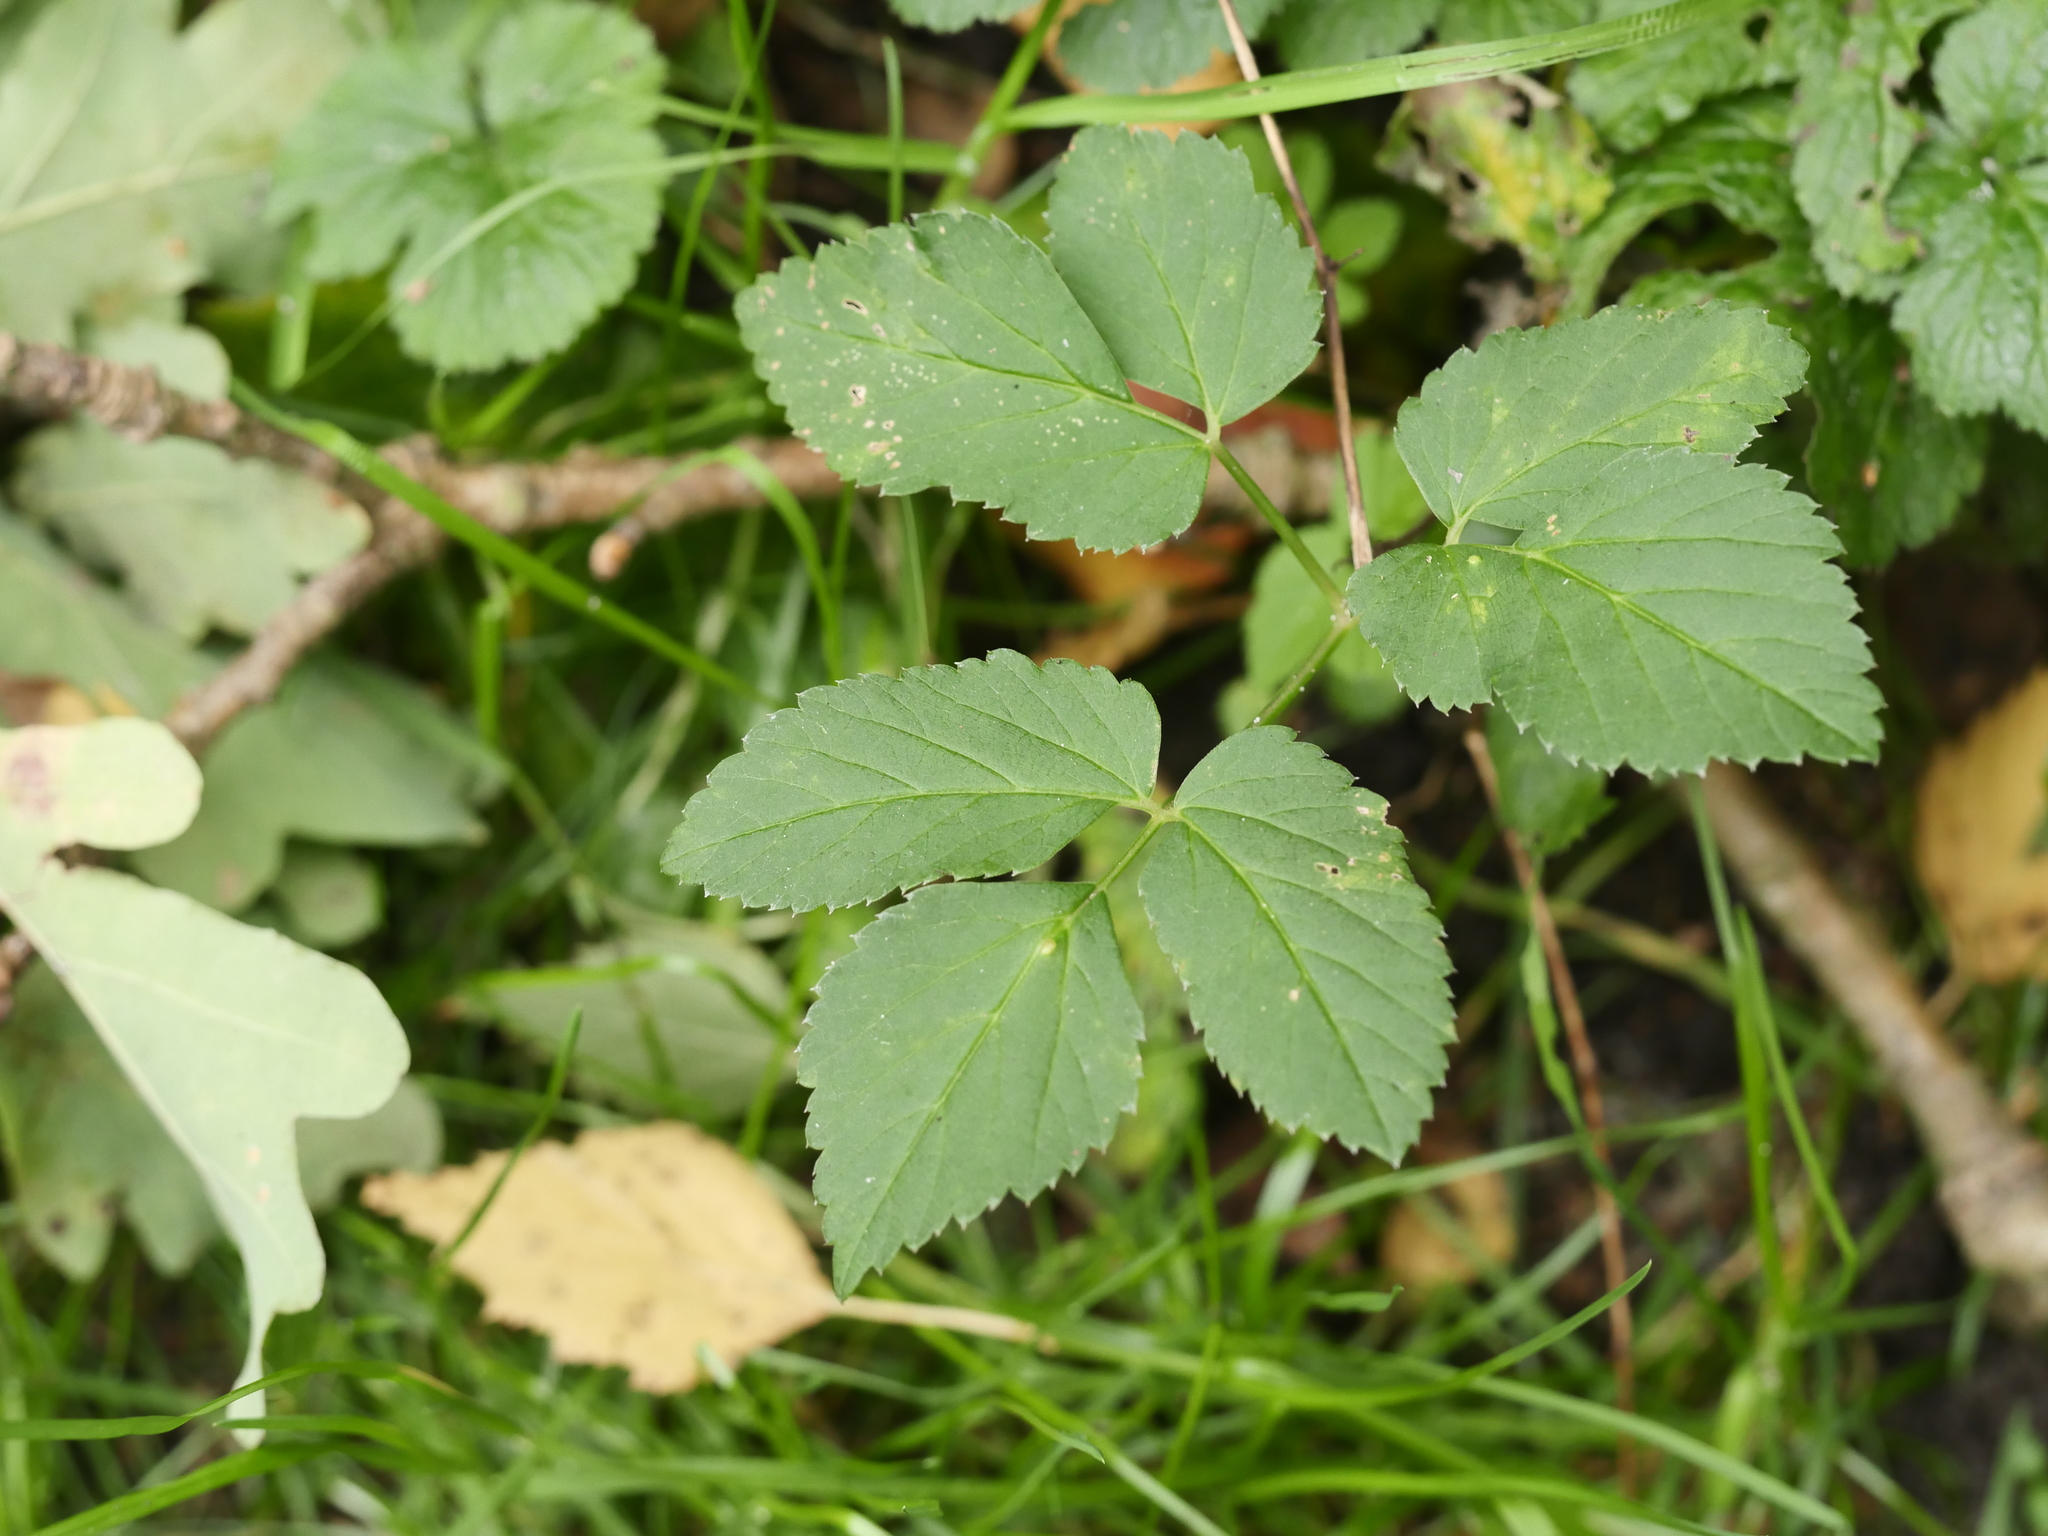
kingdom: Plantae
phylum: Tracheophyta
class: Magnoliopsida
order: Apiales
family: Apiaceae
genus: Aegopodium
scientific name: Aegopodium podagraria
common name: Ground-elder
